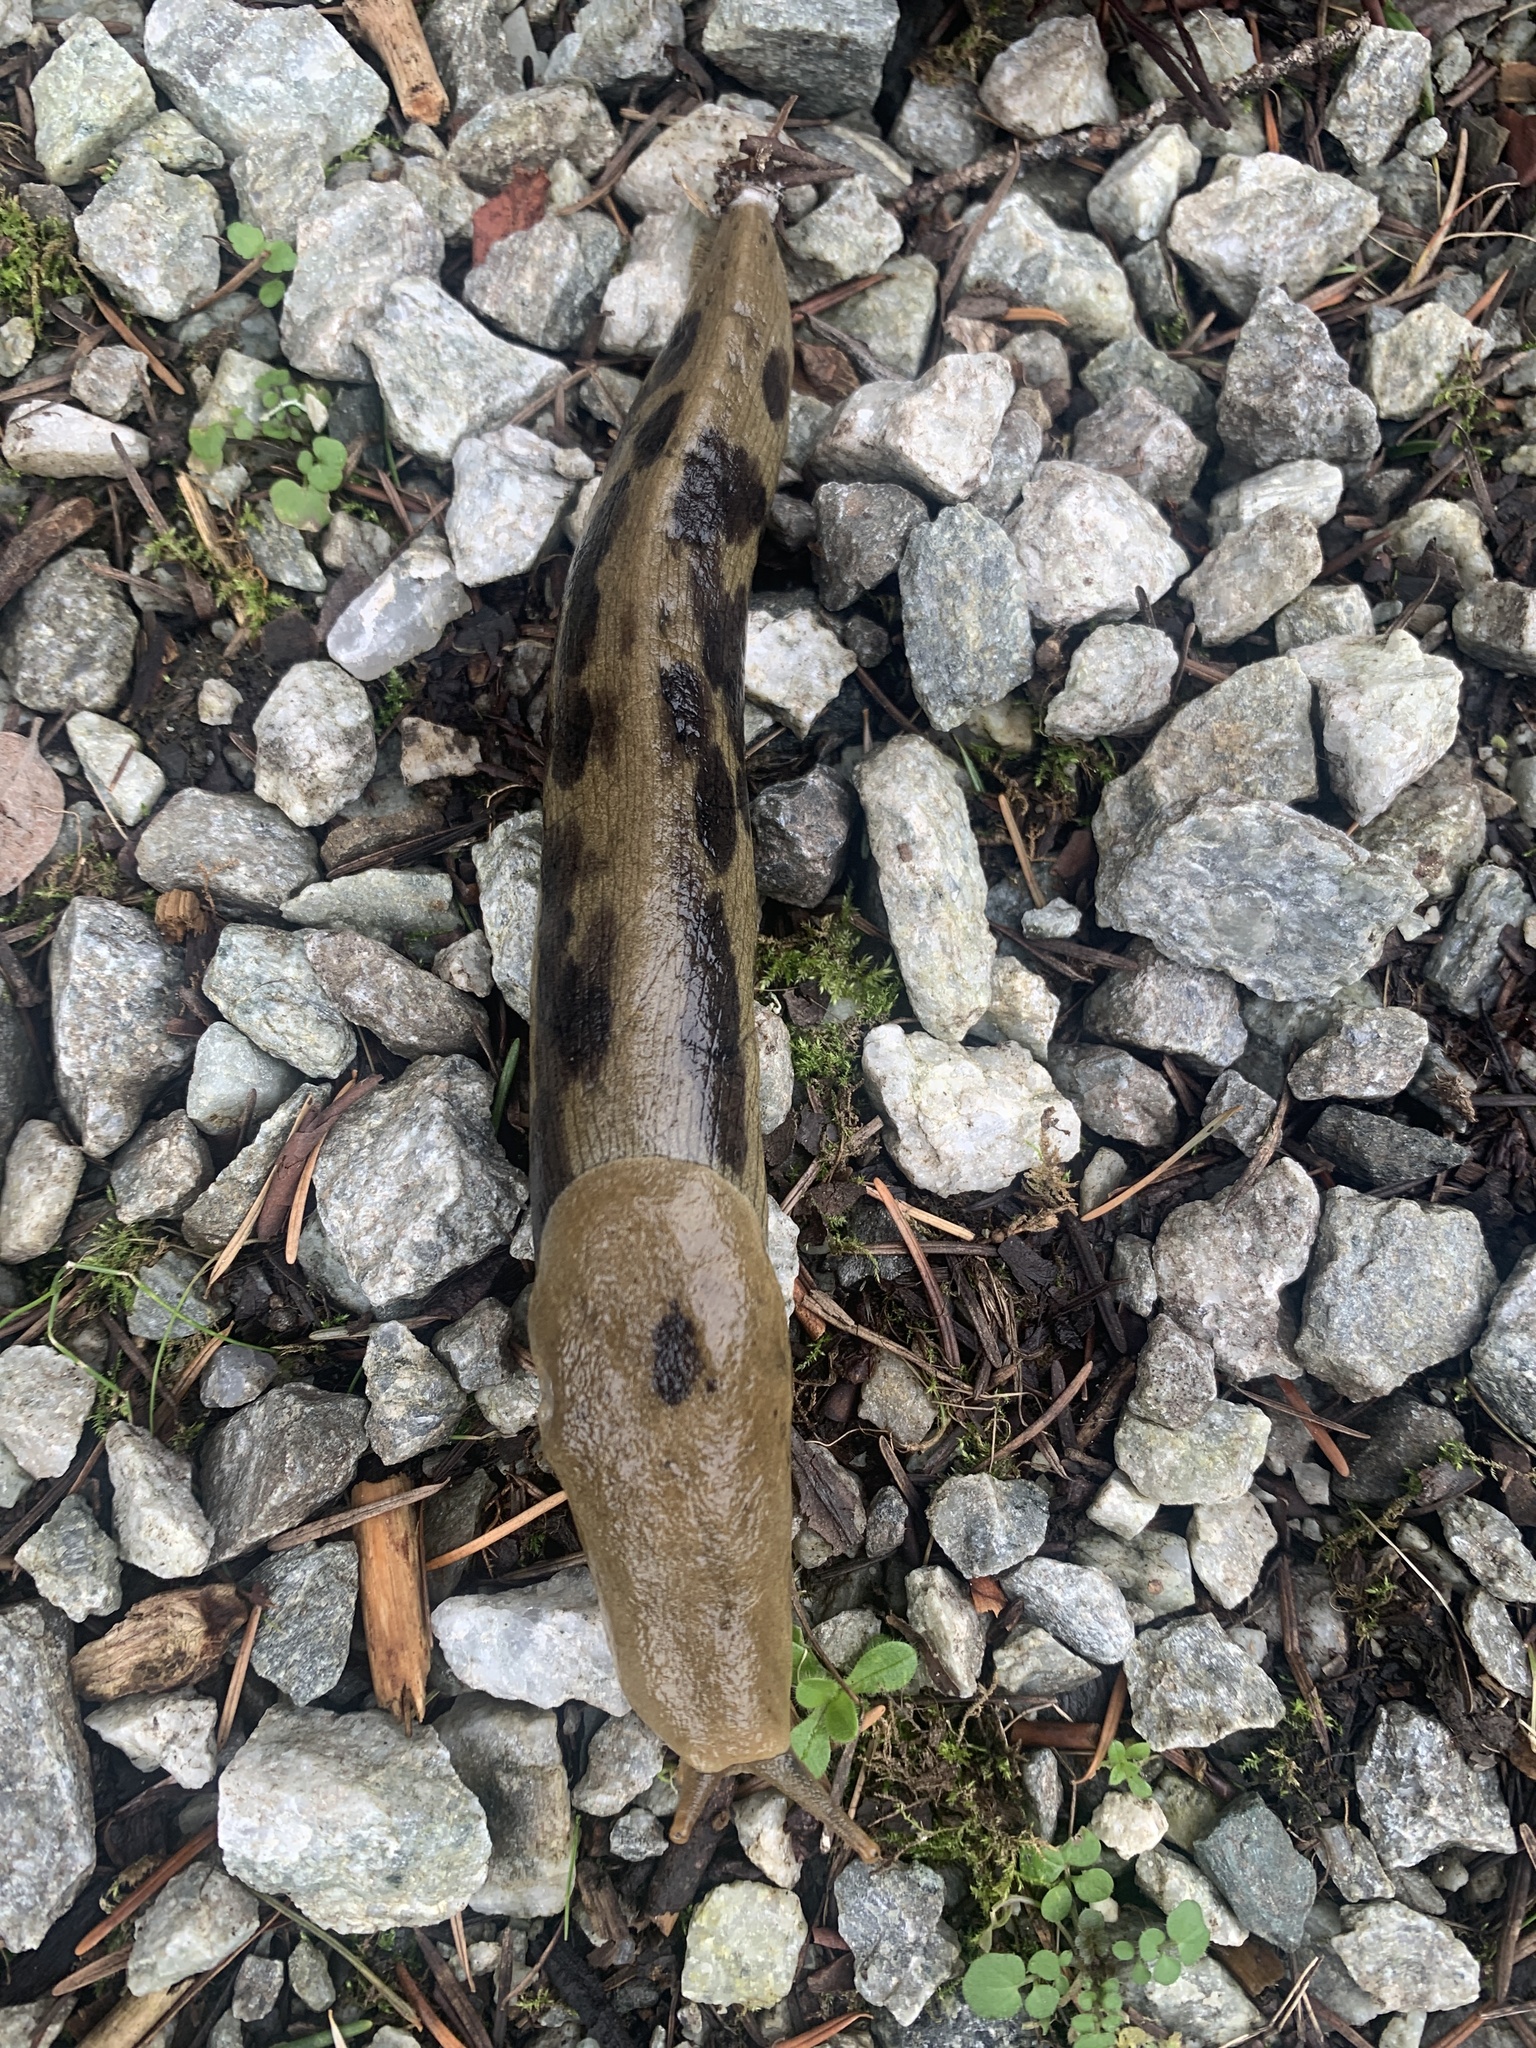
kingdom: Animalia
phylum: Mollusca
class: Gastropoda
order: Stylommatophora
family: Ariolimacidae
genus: Ariolimax
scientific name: Ariolimax columbianus
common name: Pacific banana slug
